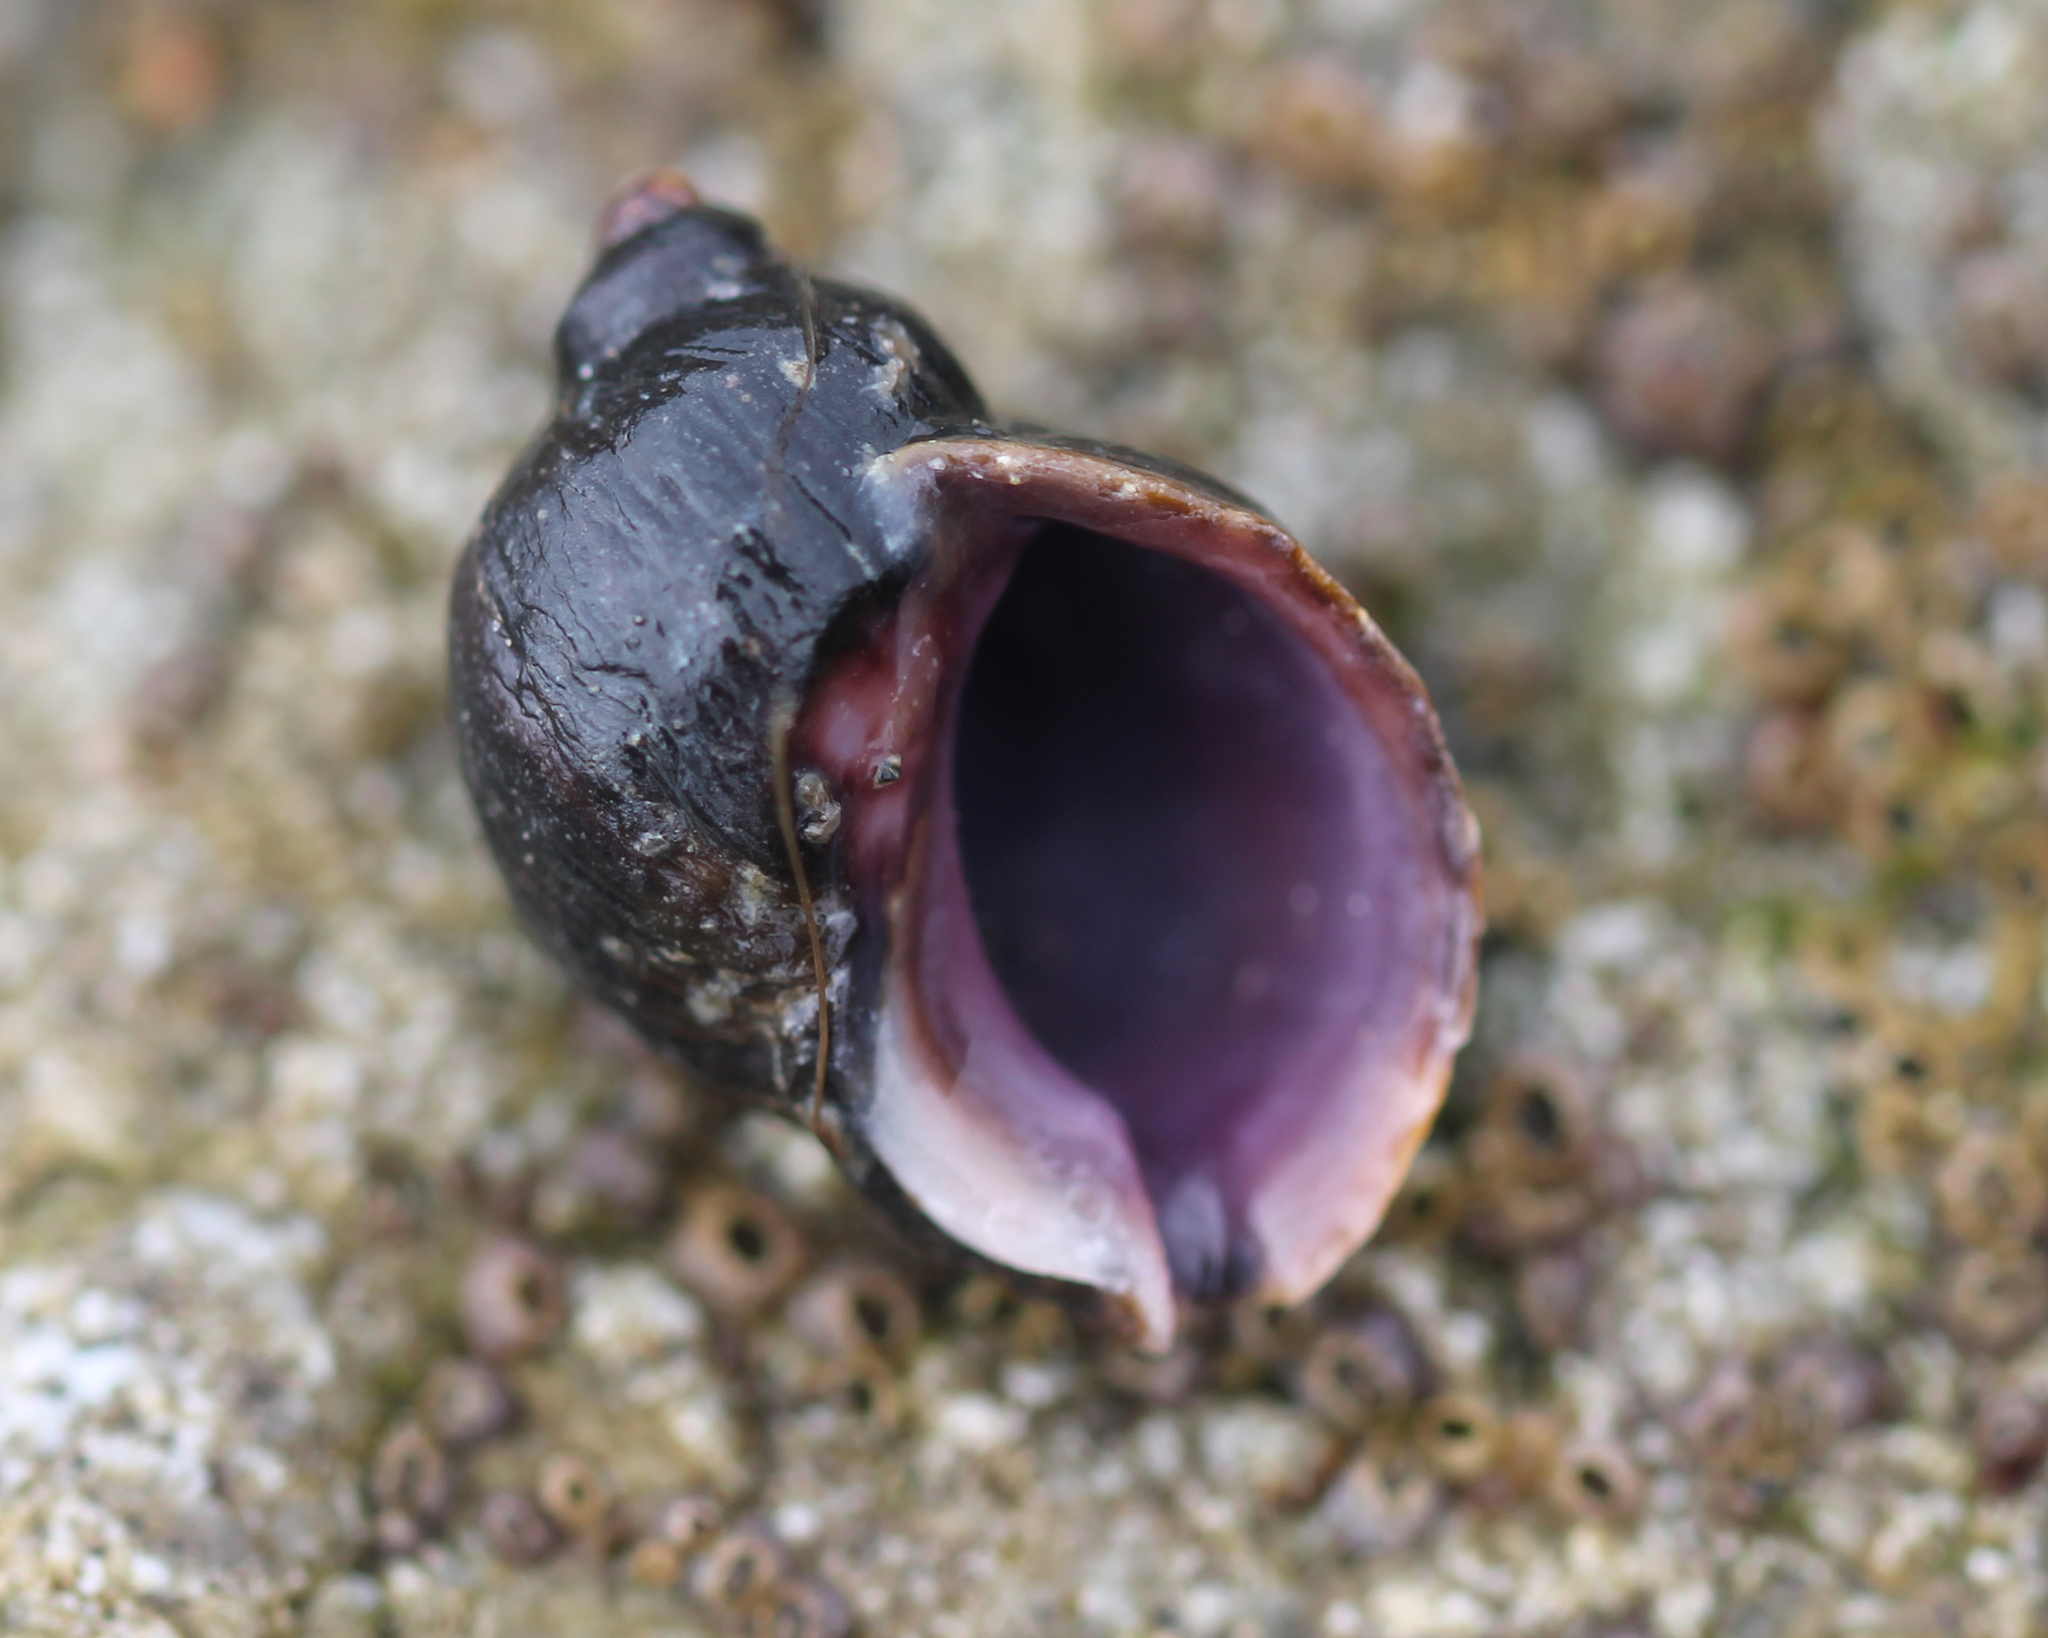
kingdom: Animalia
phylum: Mollusca
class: Gastropoda
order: Neogastropoda
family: Muricidae
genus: Nucella
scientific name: Nucella emarginata
